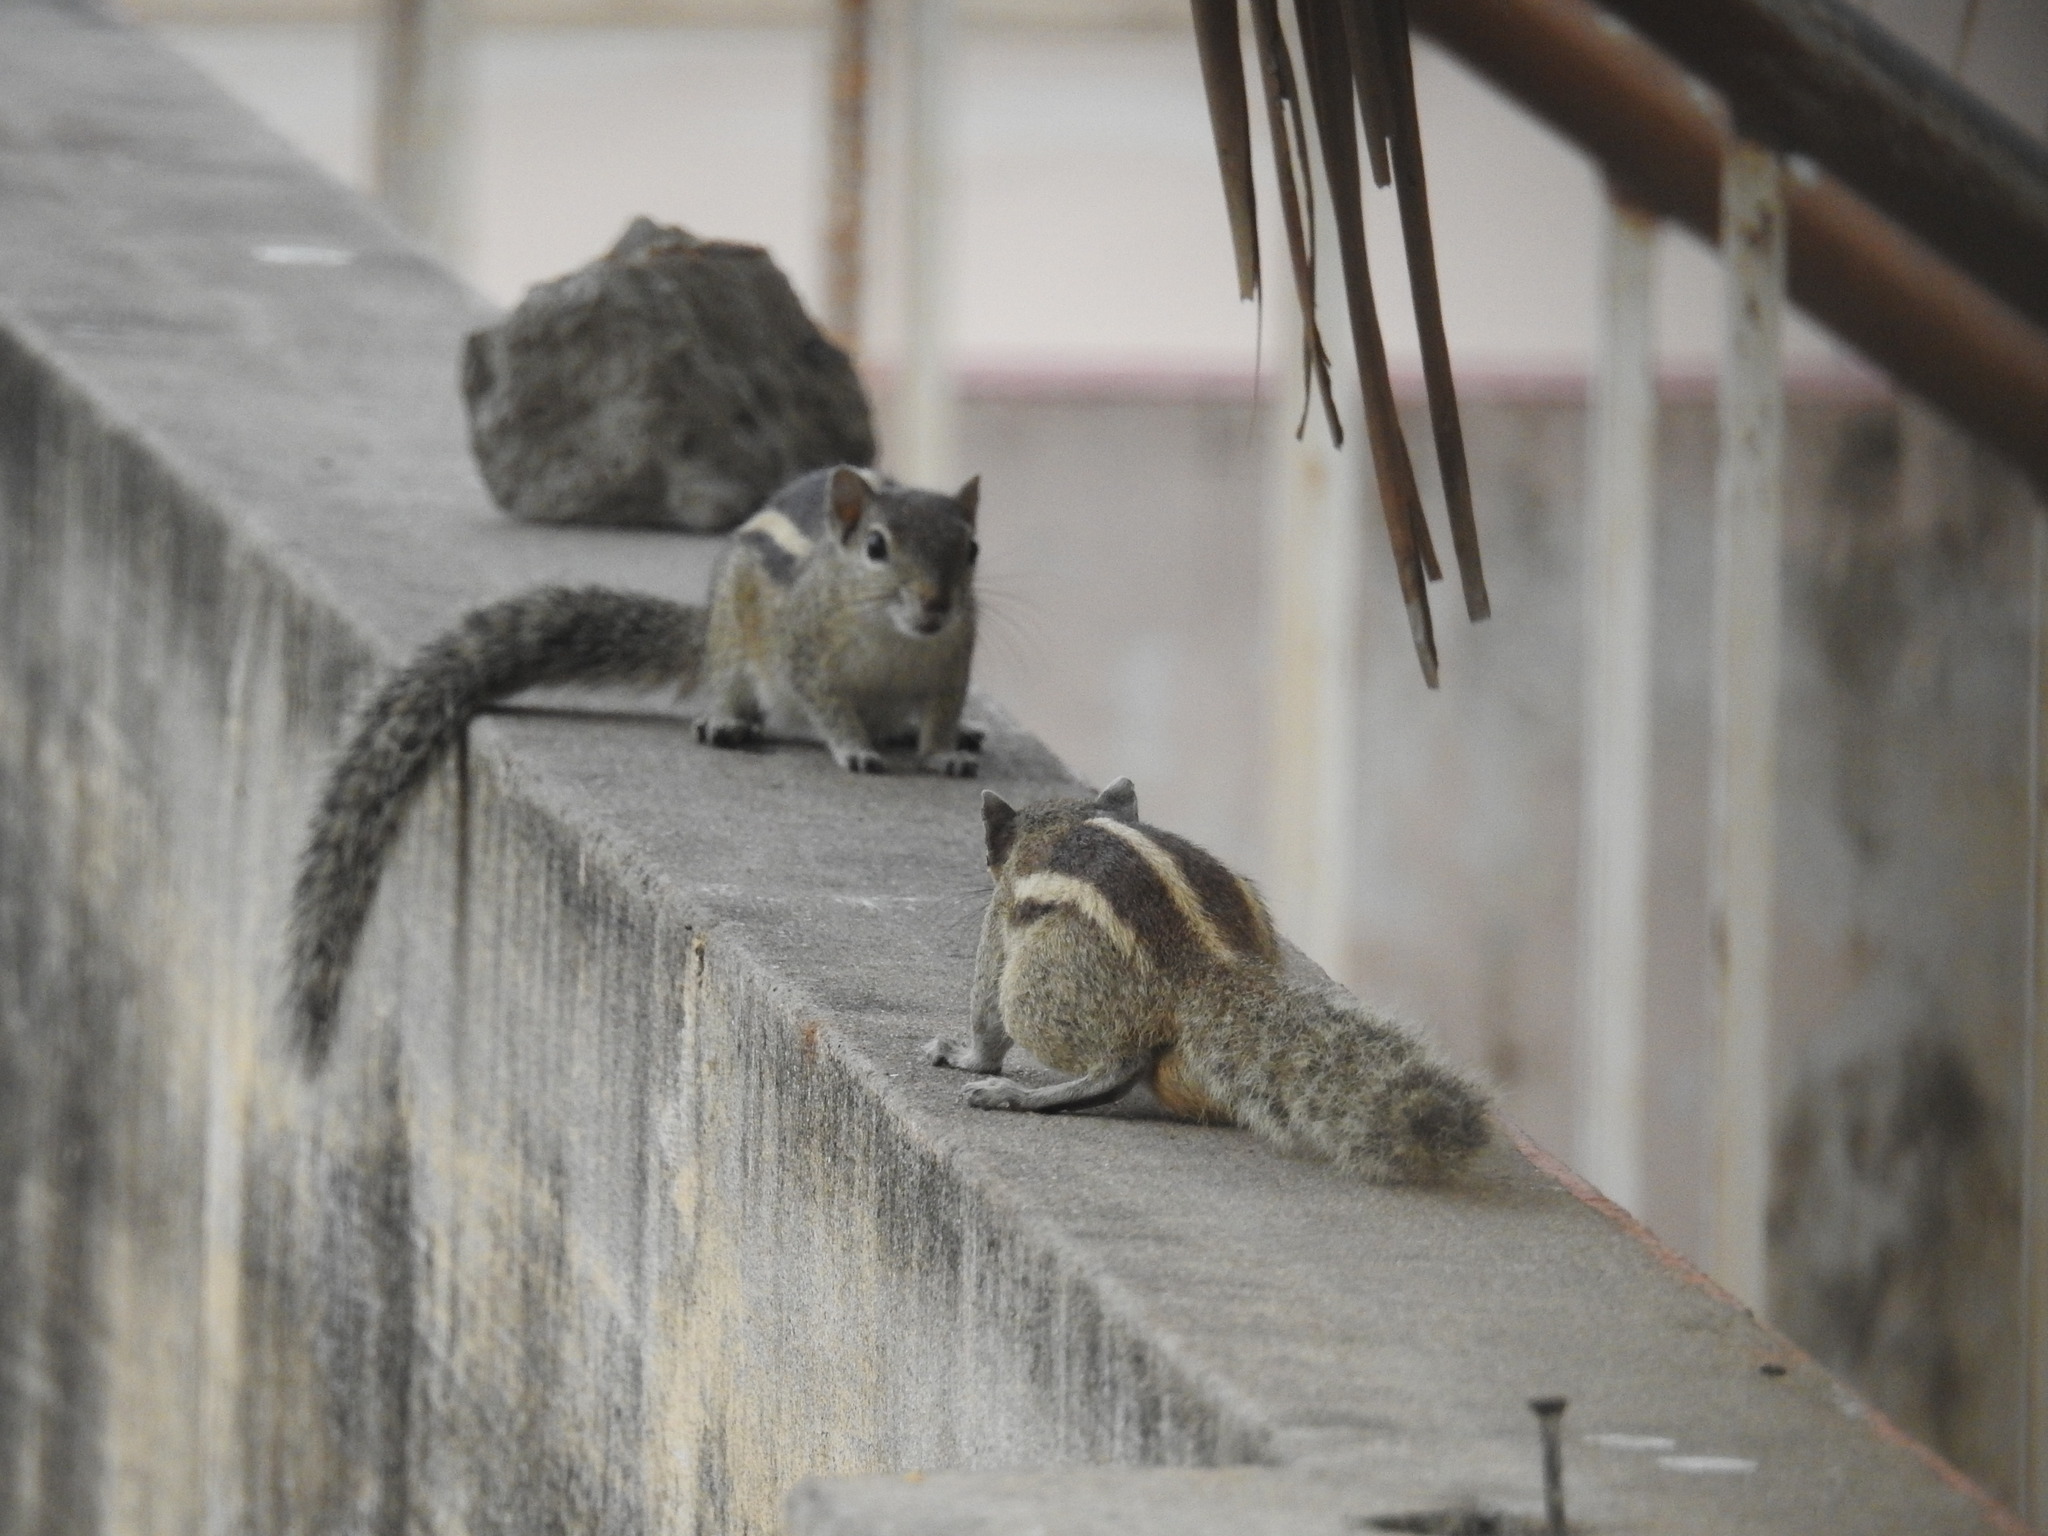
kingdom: Animalia
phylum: Chordata
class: Mammalia
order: Rodentia
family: Sciuridae
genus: Funambulus
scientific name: Funambulus palmarum
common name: Indian palm squirrel
